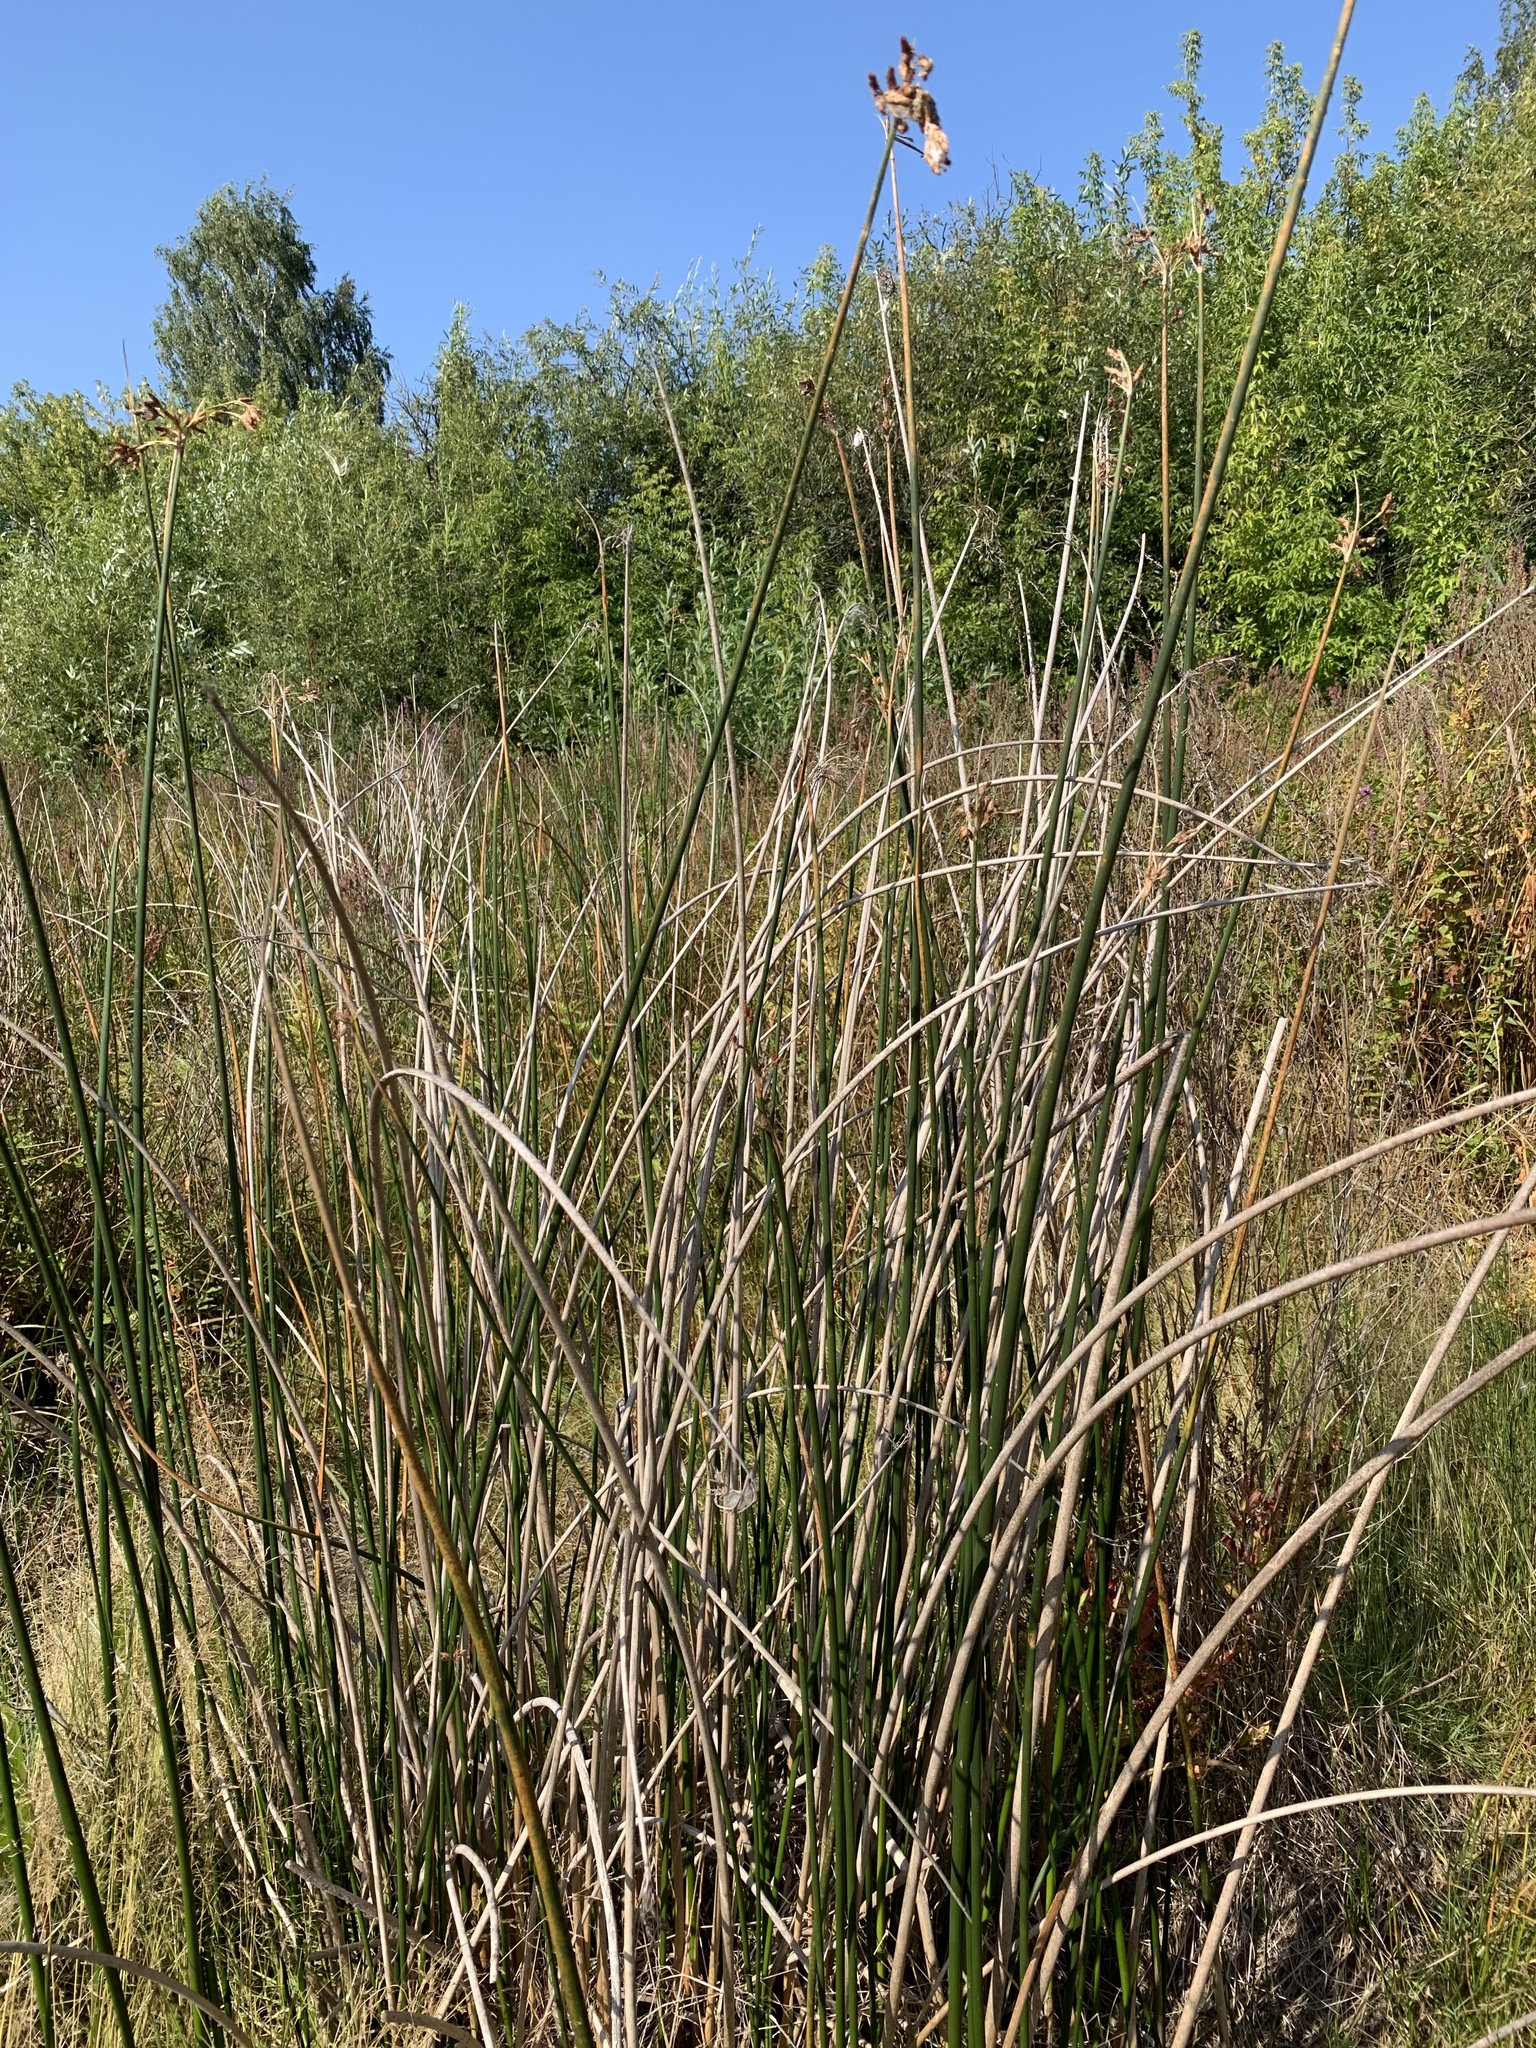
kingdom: Plantae
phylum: Tracheophyta
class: Liliopsida
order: Poales
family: Cyperaceae
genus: Schoenoplectus
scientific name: Schoenoplectus lacustris
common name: Common club-rush
